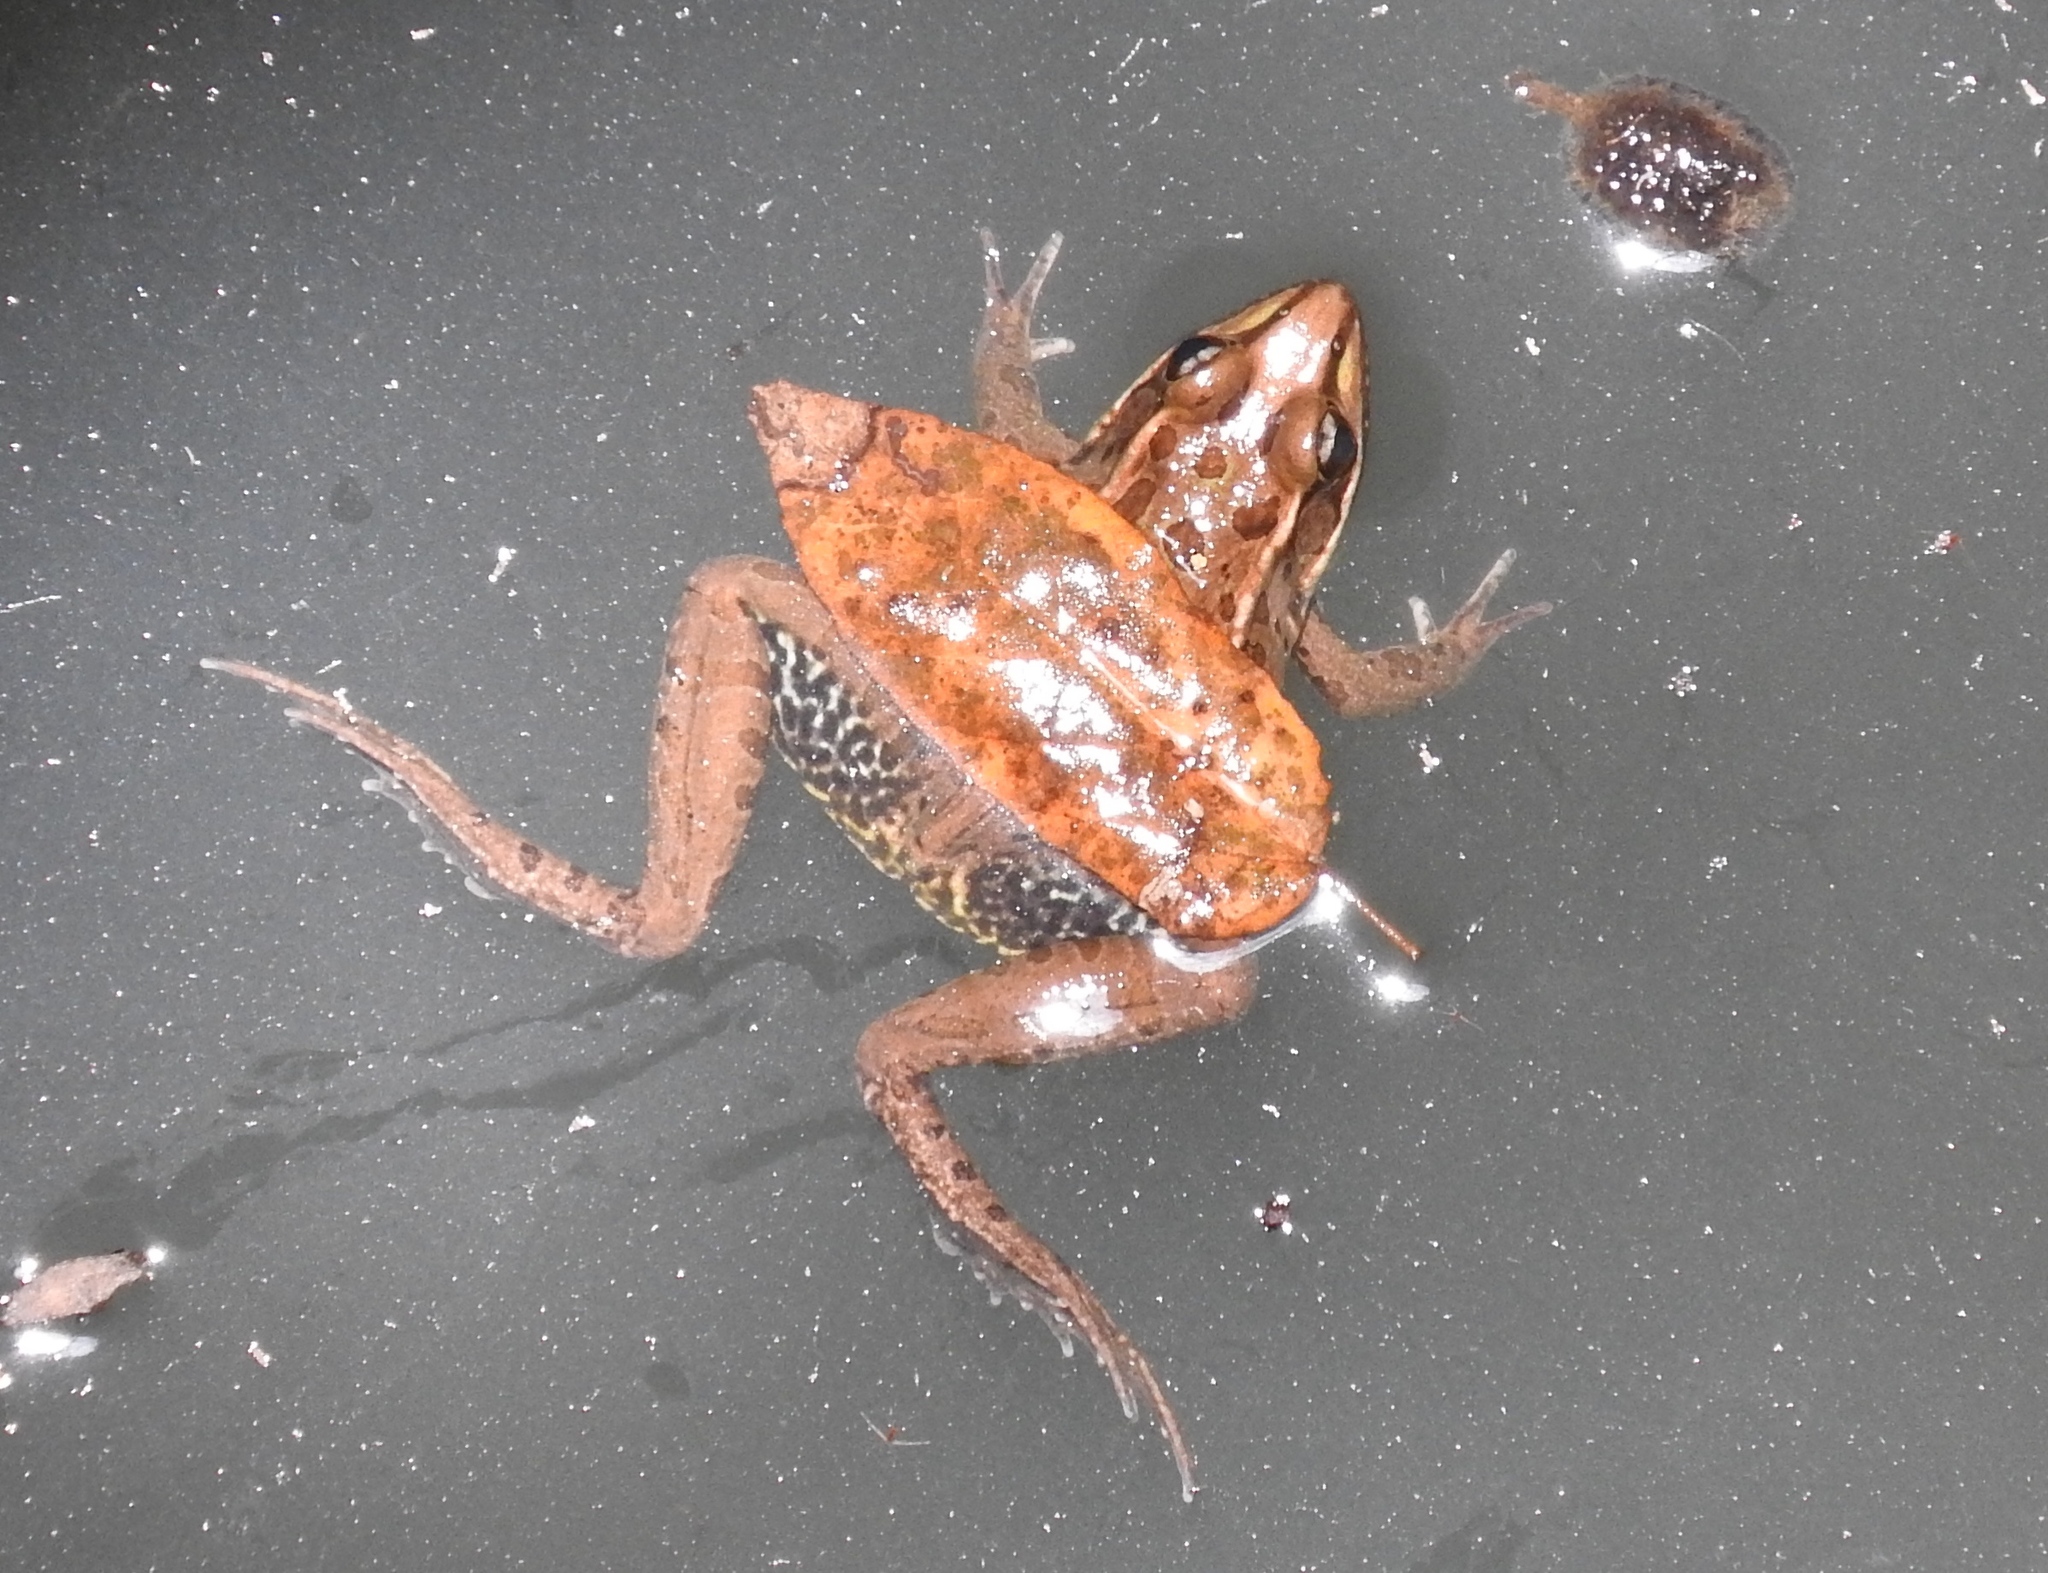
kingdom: Animalia
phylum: Chordata
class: Amphibia
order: Anura
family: Ranidae
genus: Lithobates
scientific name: Lithobates magnaocularis
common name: Northwest mexico leopard frog
